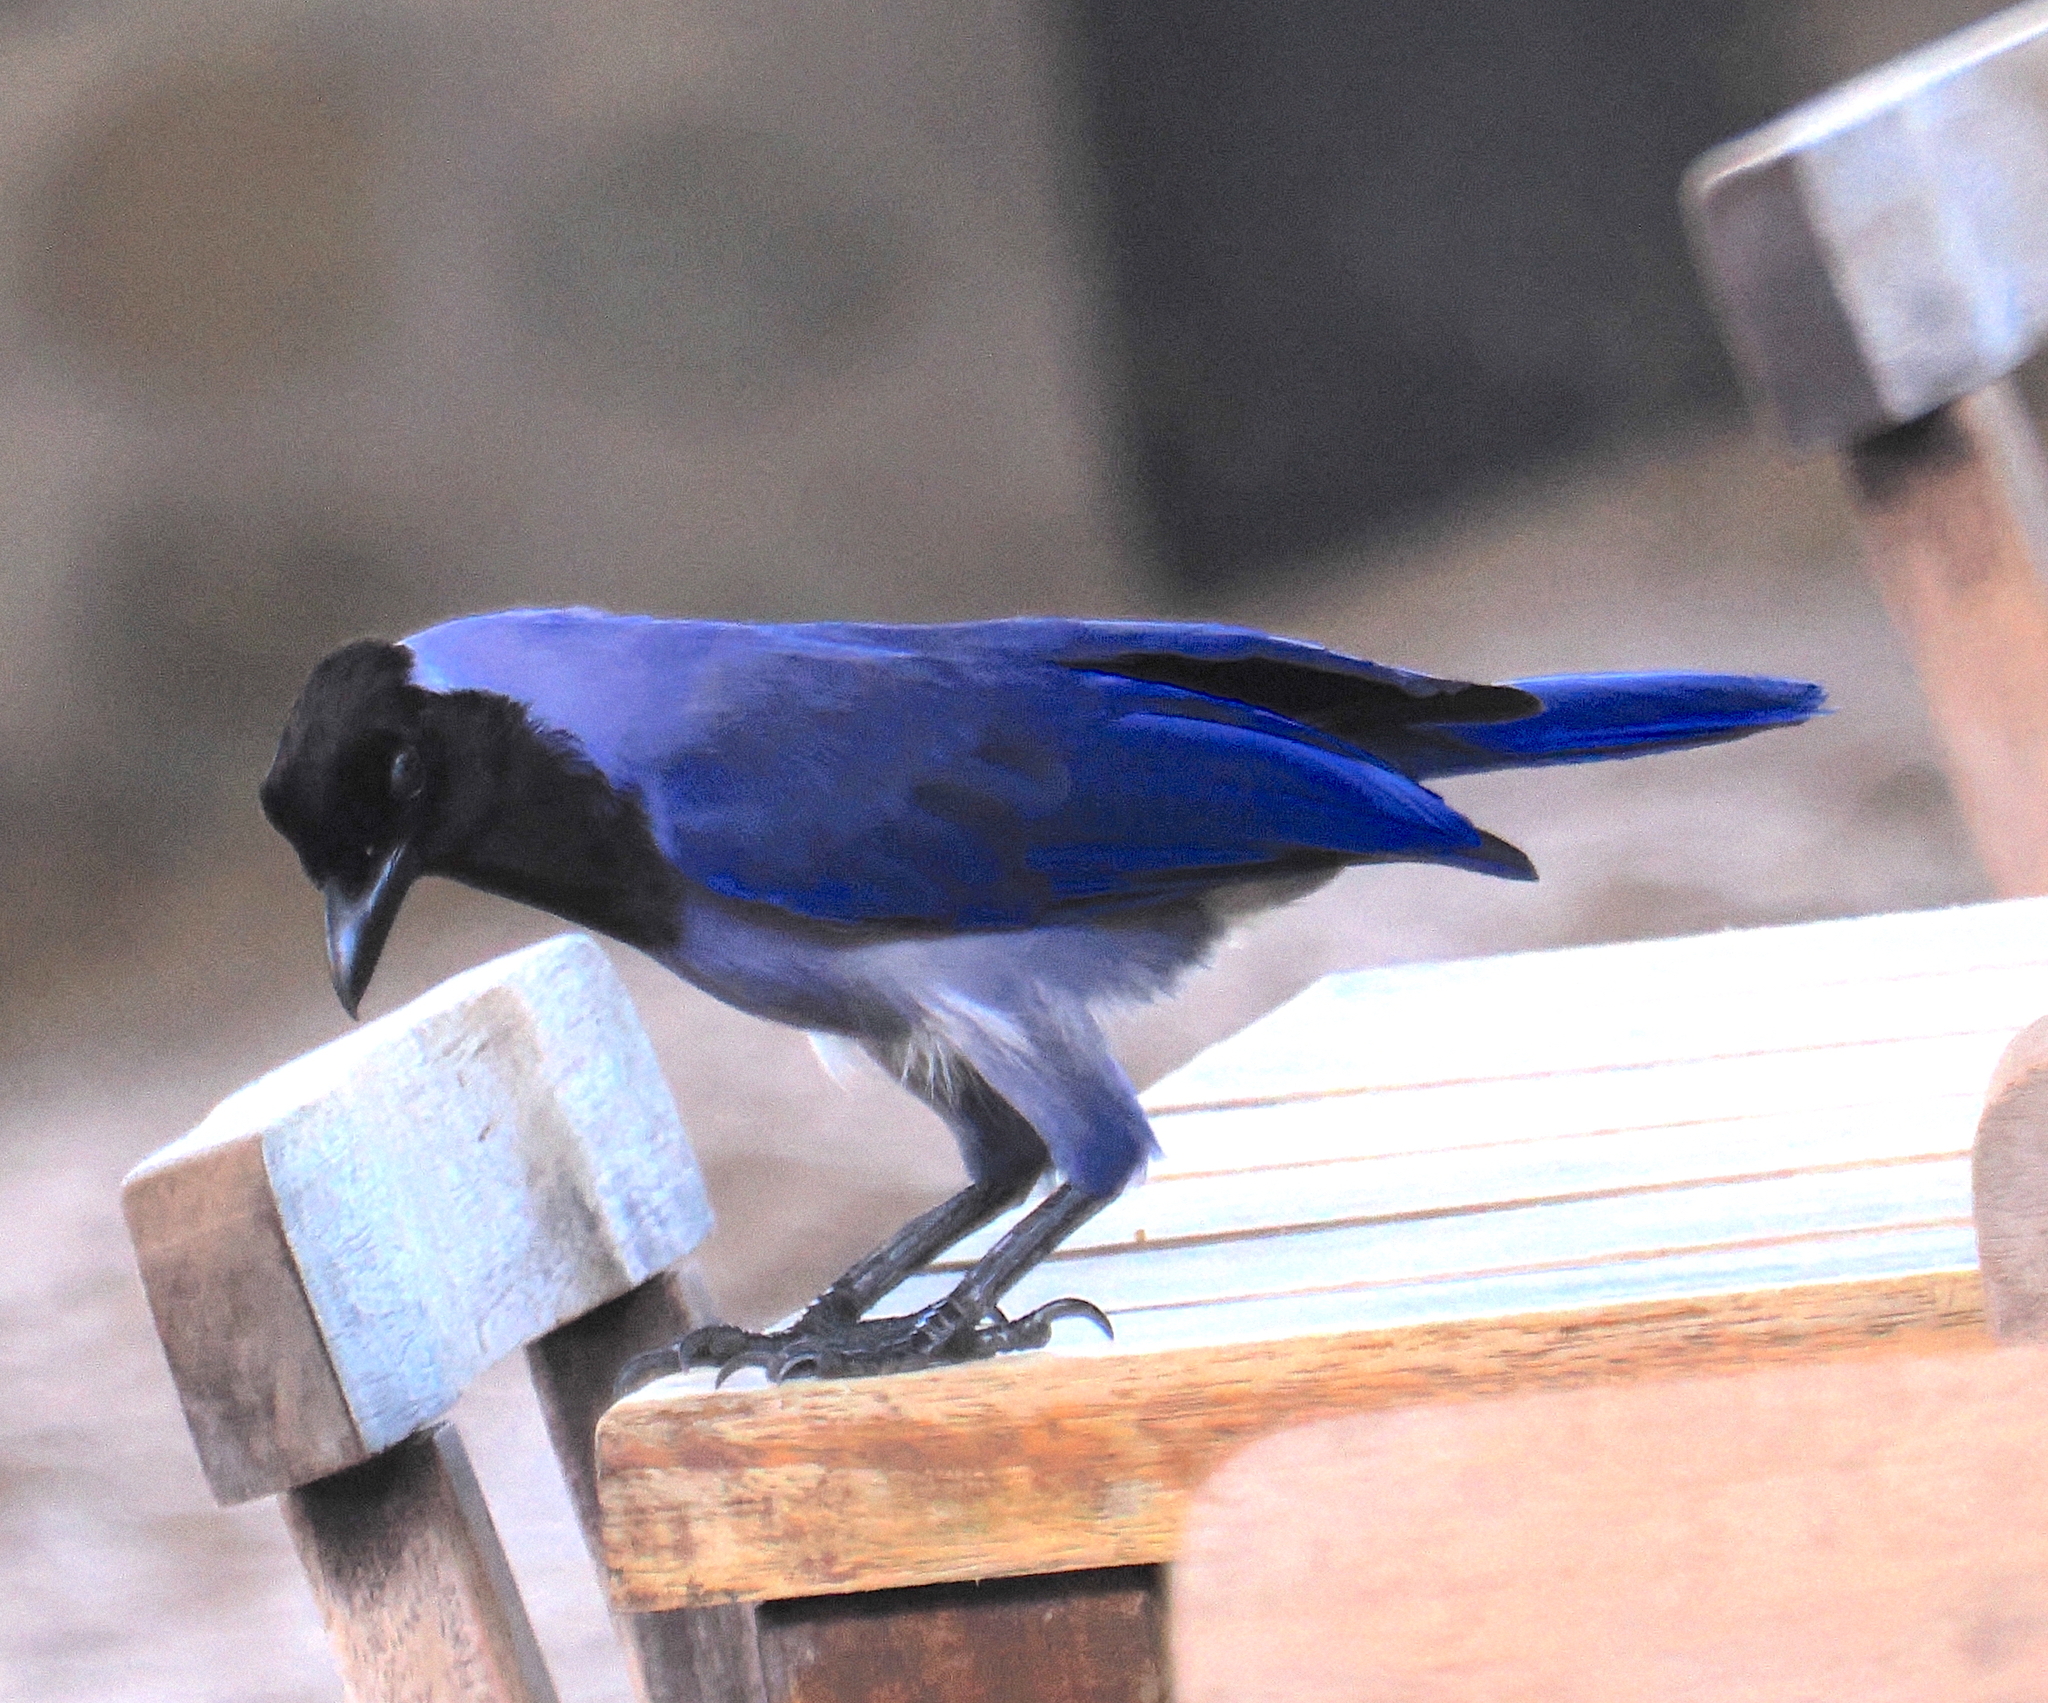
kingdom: Animalia
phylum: Chordata
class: Aves
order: Passeriformes
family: Corvidae
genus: Cyanocorax
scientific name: Cyanocorax violaceus
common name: Violaceous jay
